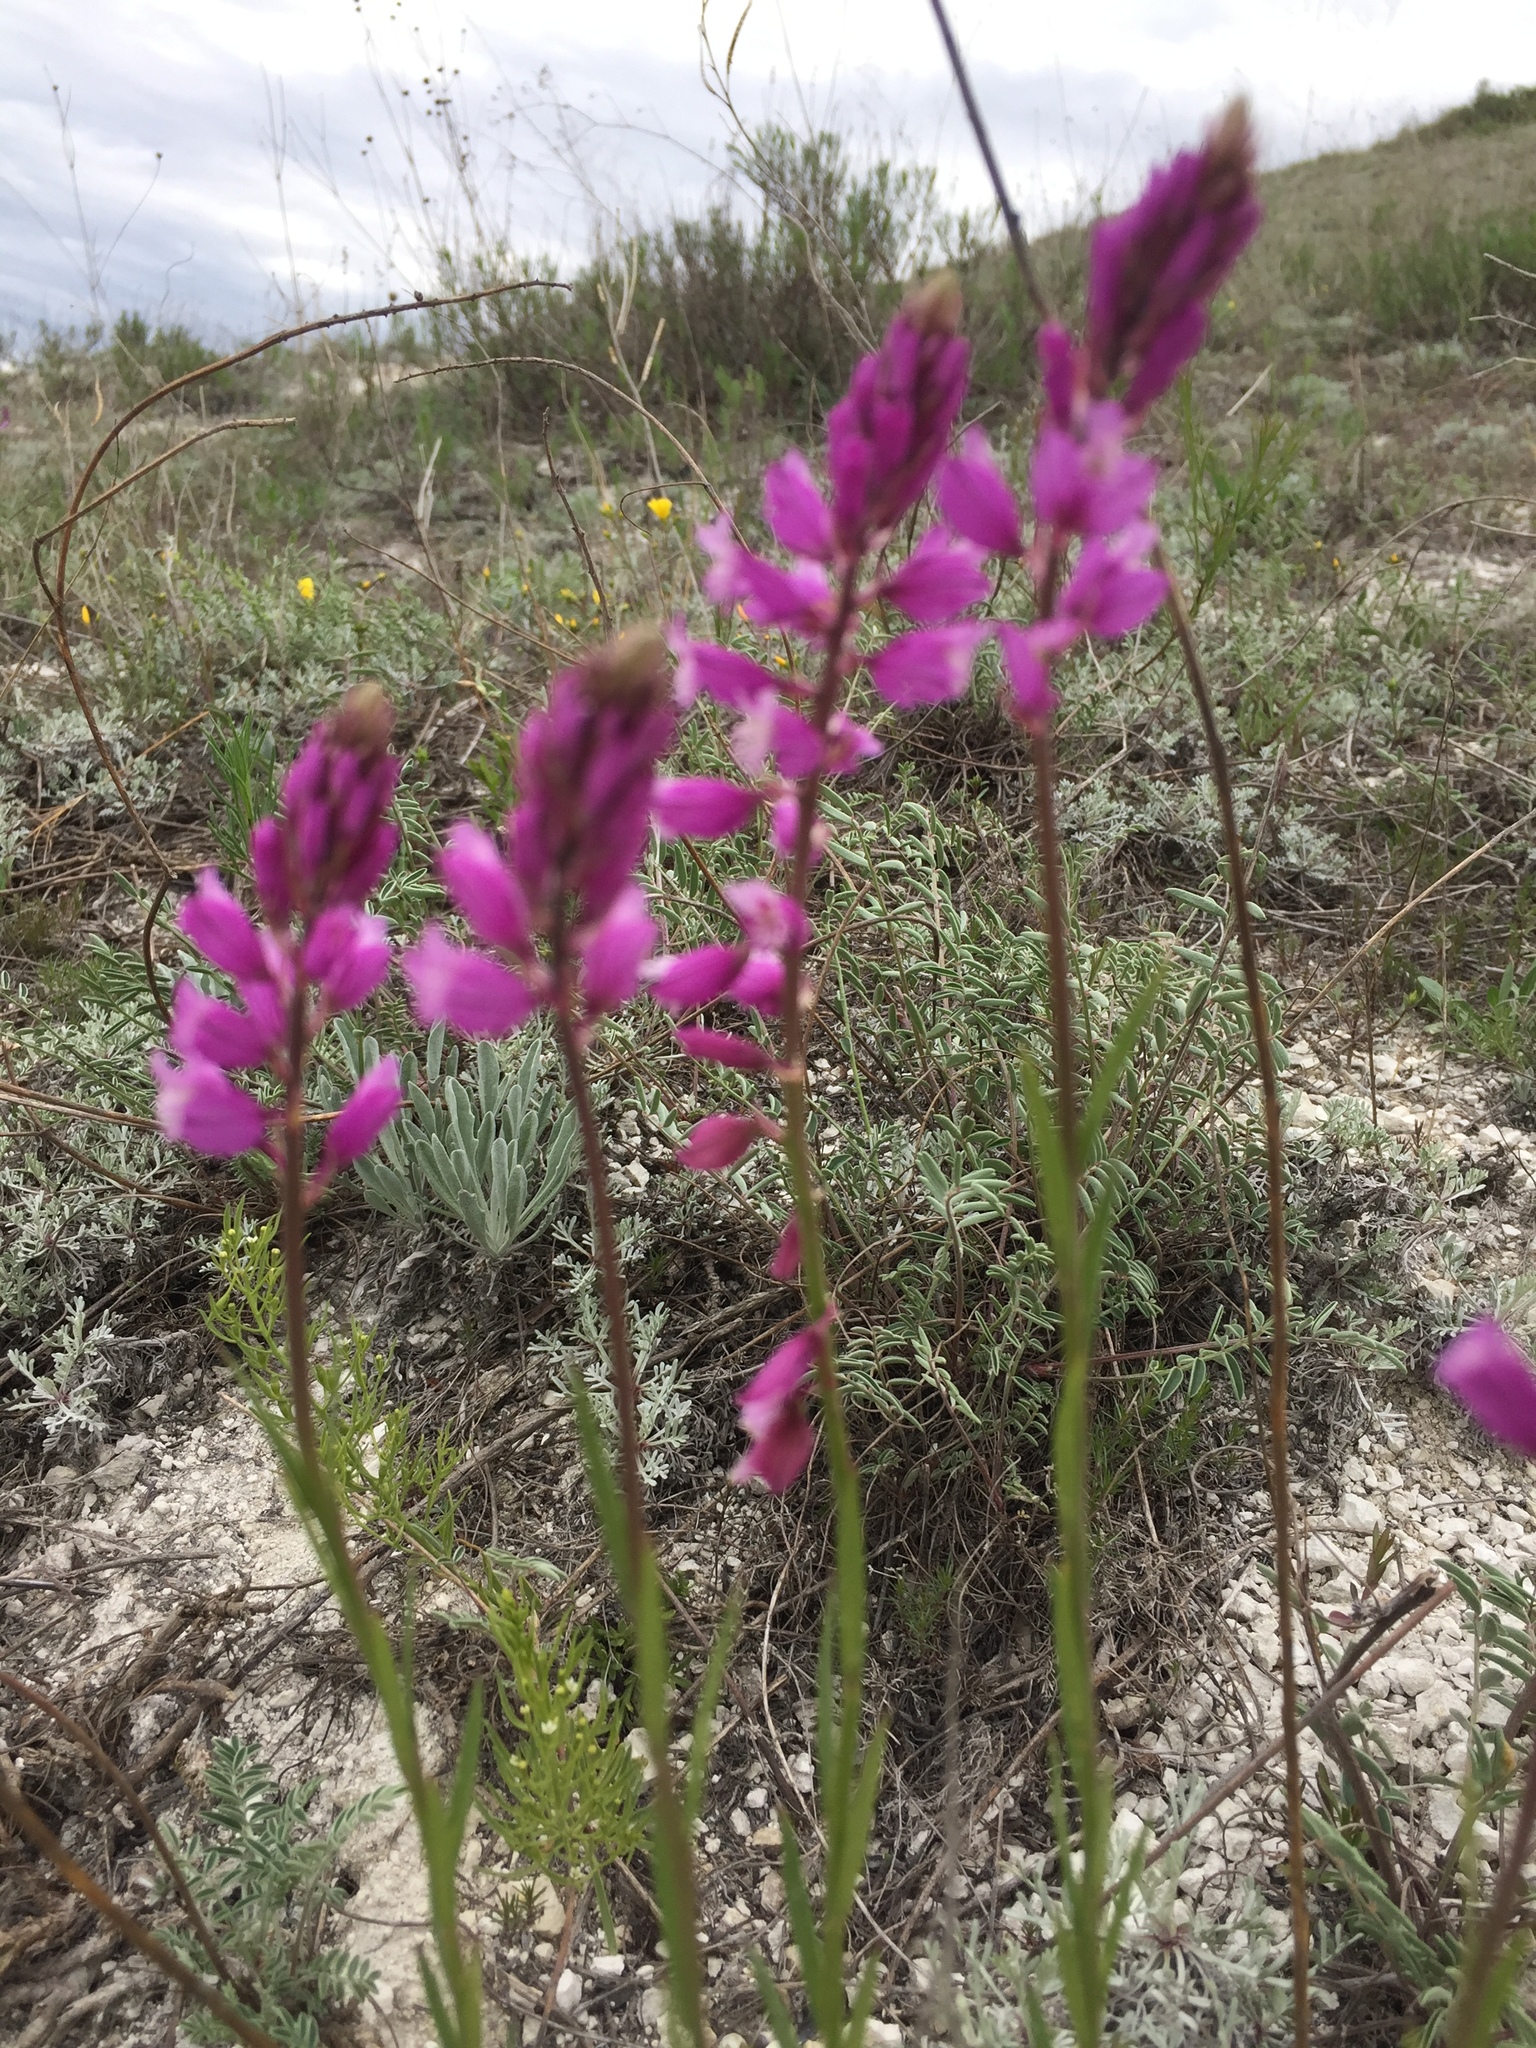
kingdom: Plantae
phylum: Tracheophyta
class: Magnoliopsida
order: Fabales
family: Polygalaceae
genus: Polygala
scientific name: Polygala nicaeensis
